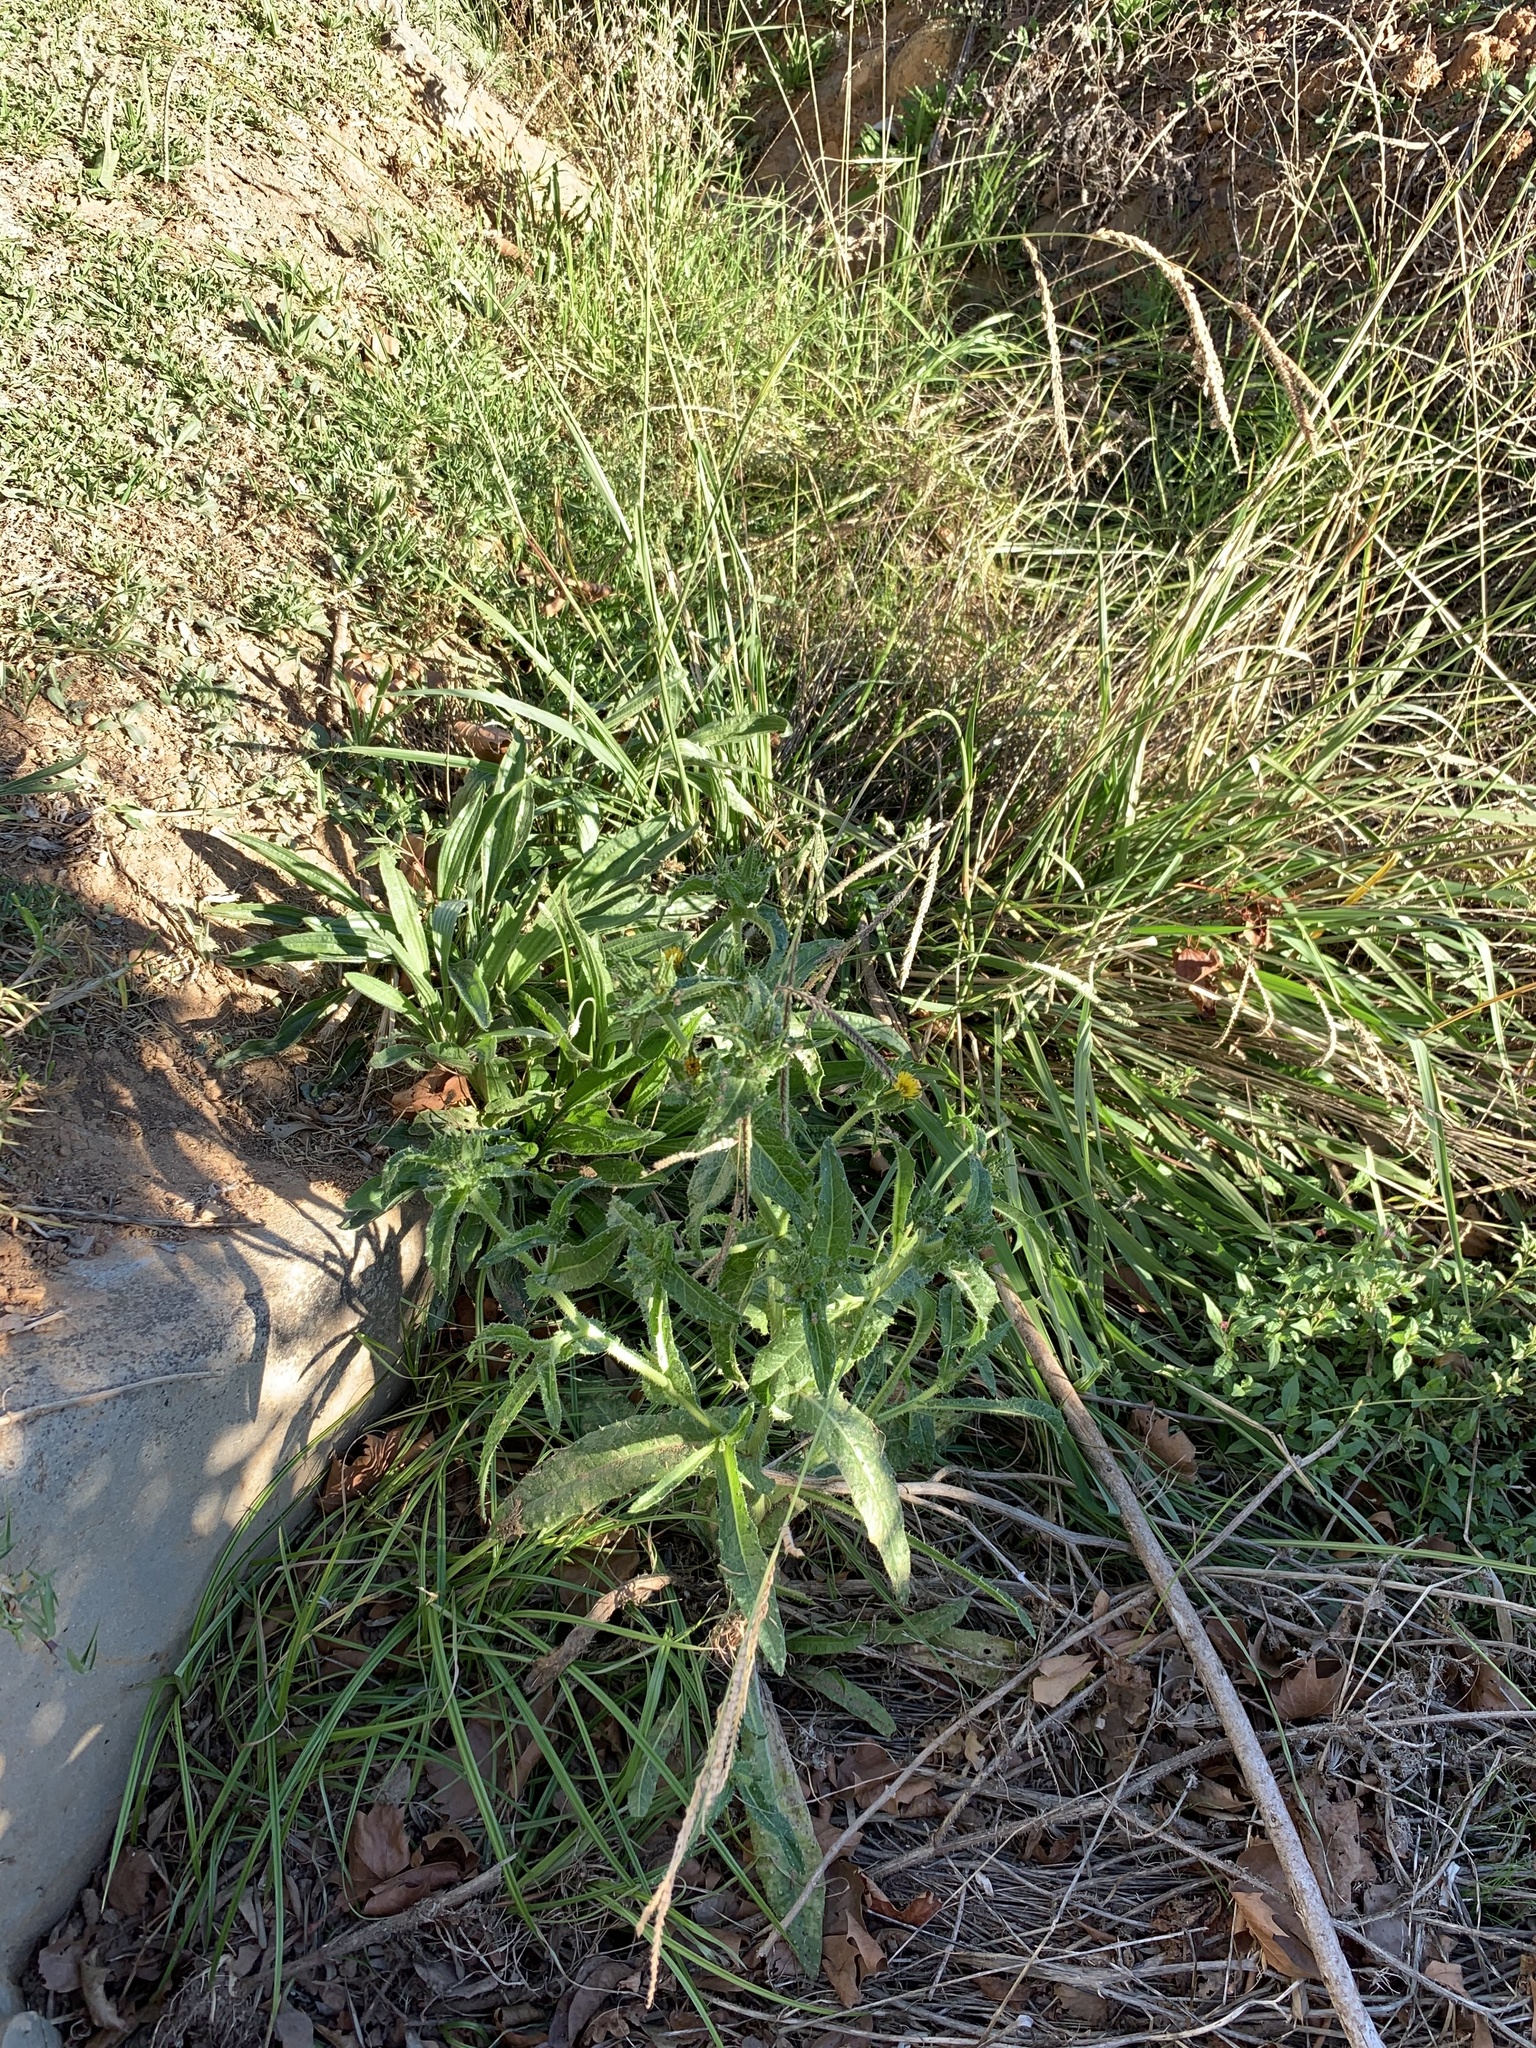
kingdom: Plantae
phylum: Tracheophyta
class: Magnoliopsida
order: Asterales
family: Asteraceae
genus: Helminthotheca
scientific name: Helminthotheca echioides
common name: Ox-tongue
